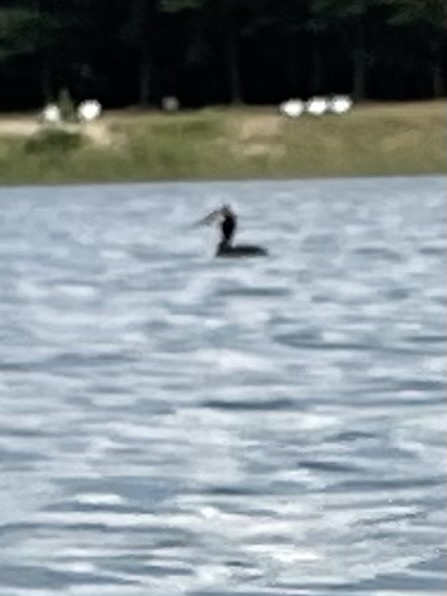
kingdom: Animalia
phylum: Chordata
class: Aves
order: Podicipediformes
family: Podicipedidae
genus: Podiceps
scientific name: Podiceps cristatus
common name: Great crested grebe
